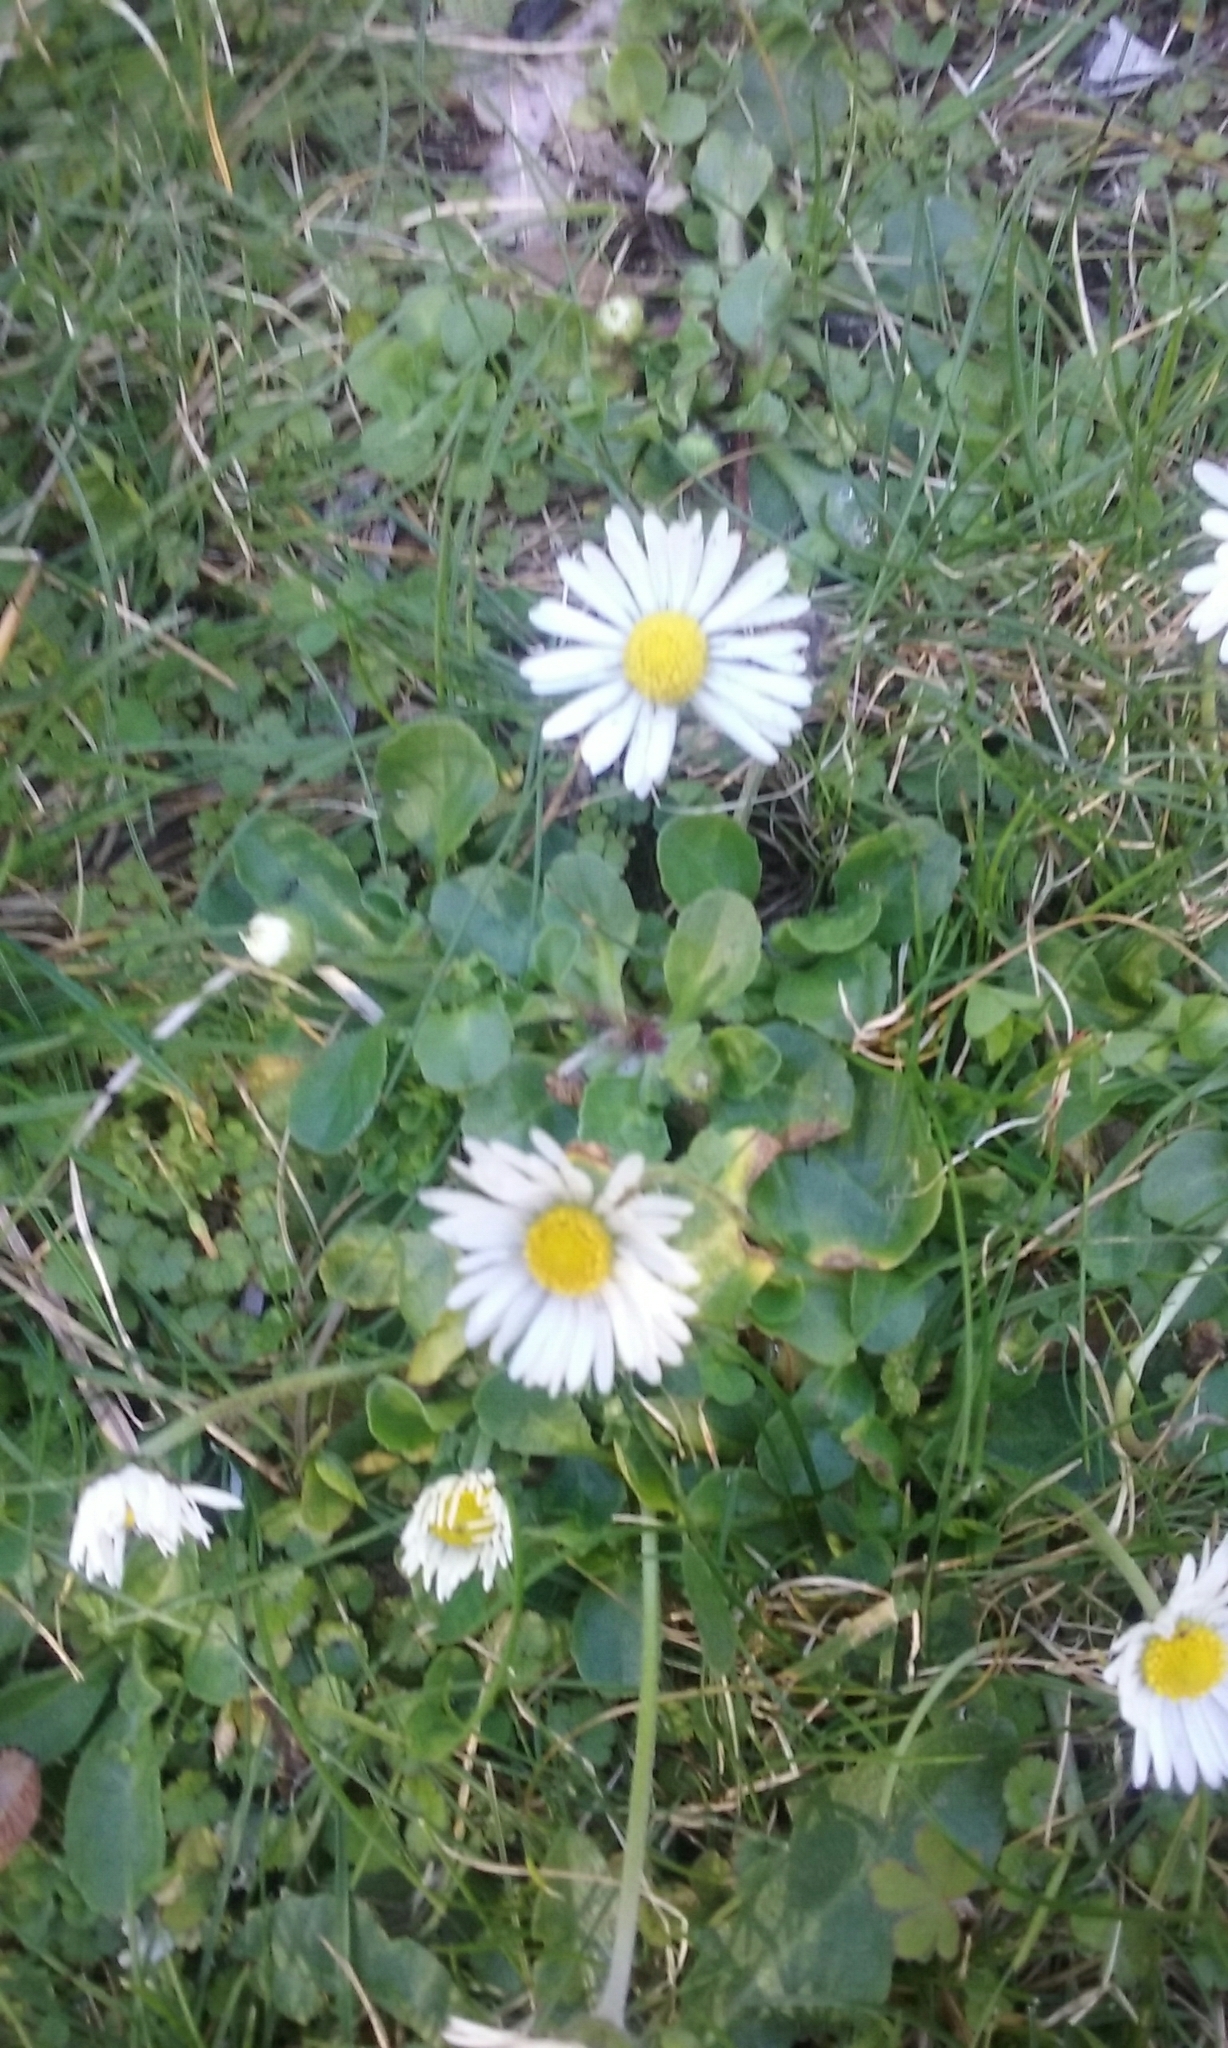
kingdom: Plantae
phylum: Tracheophyta
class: Magnoliopsida
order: Asterales
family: Asteraceae
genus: Bellis
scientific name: Bellis perennis
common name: Lawndaisy
